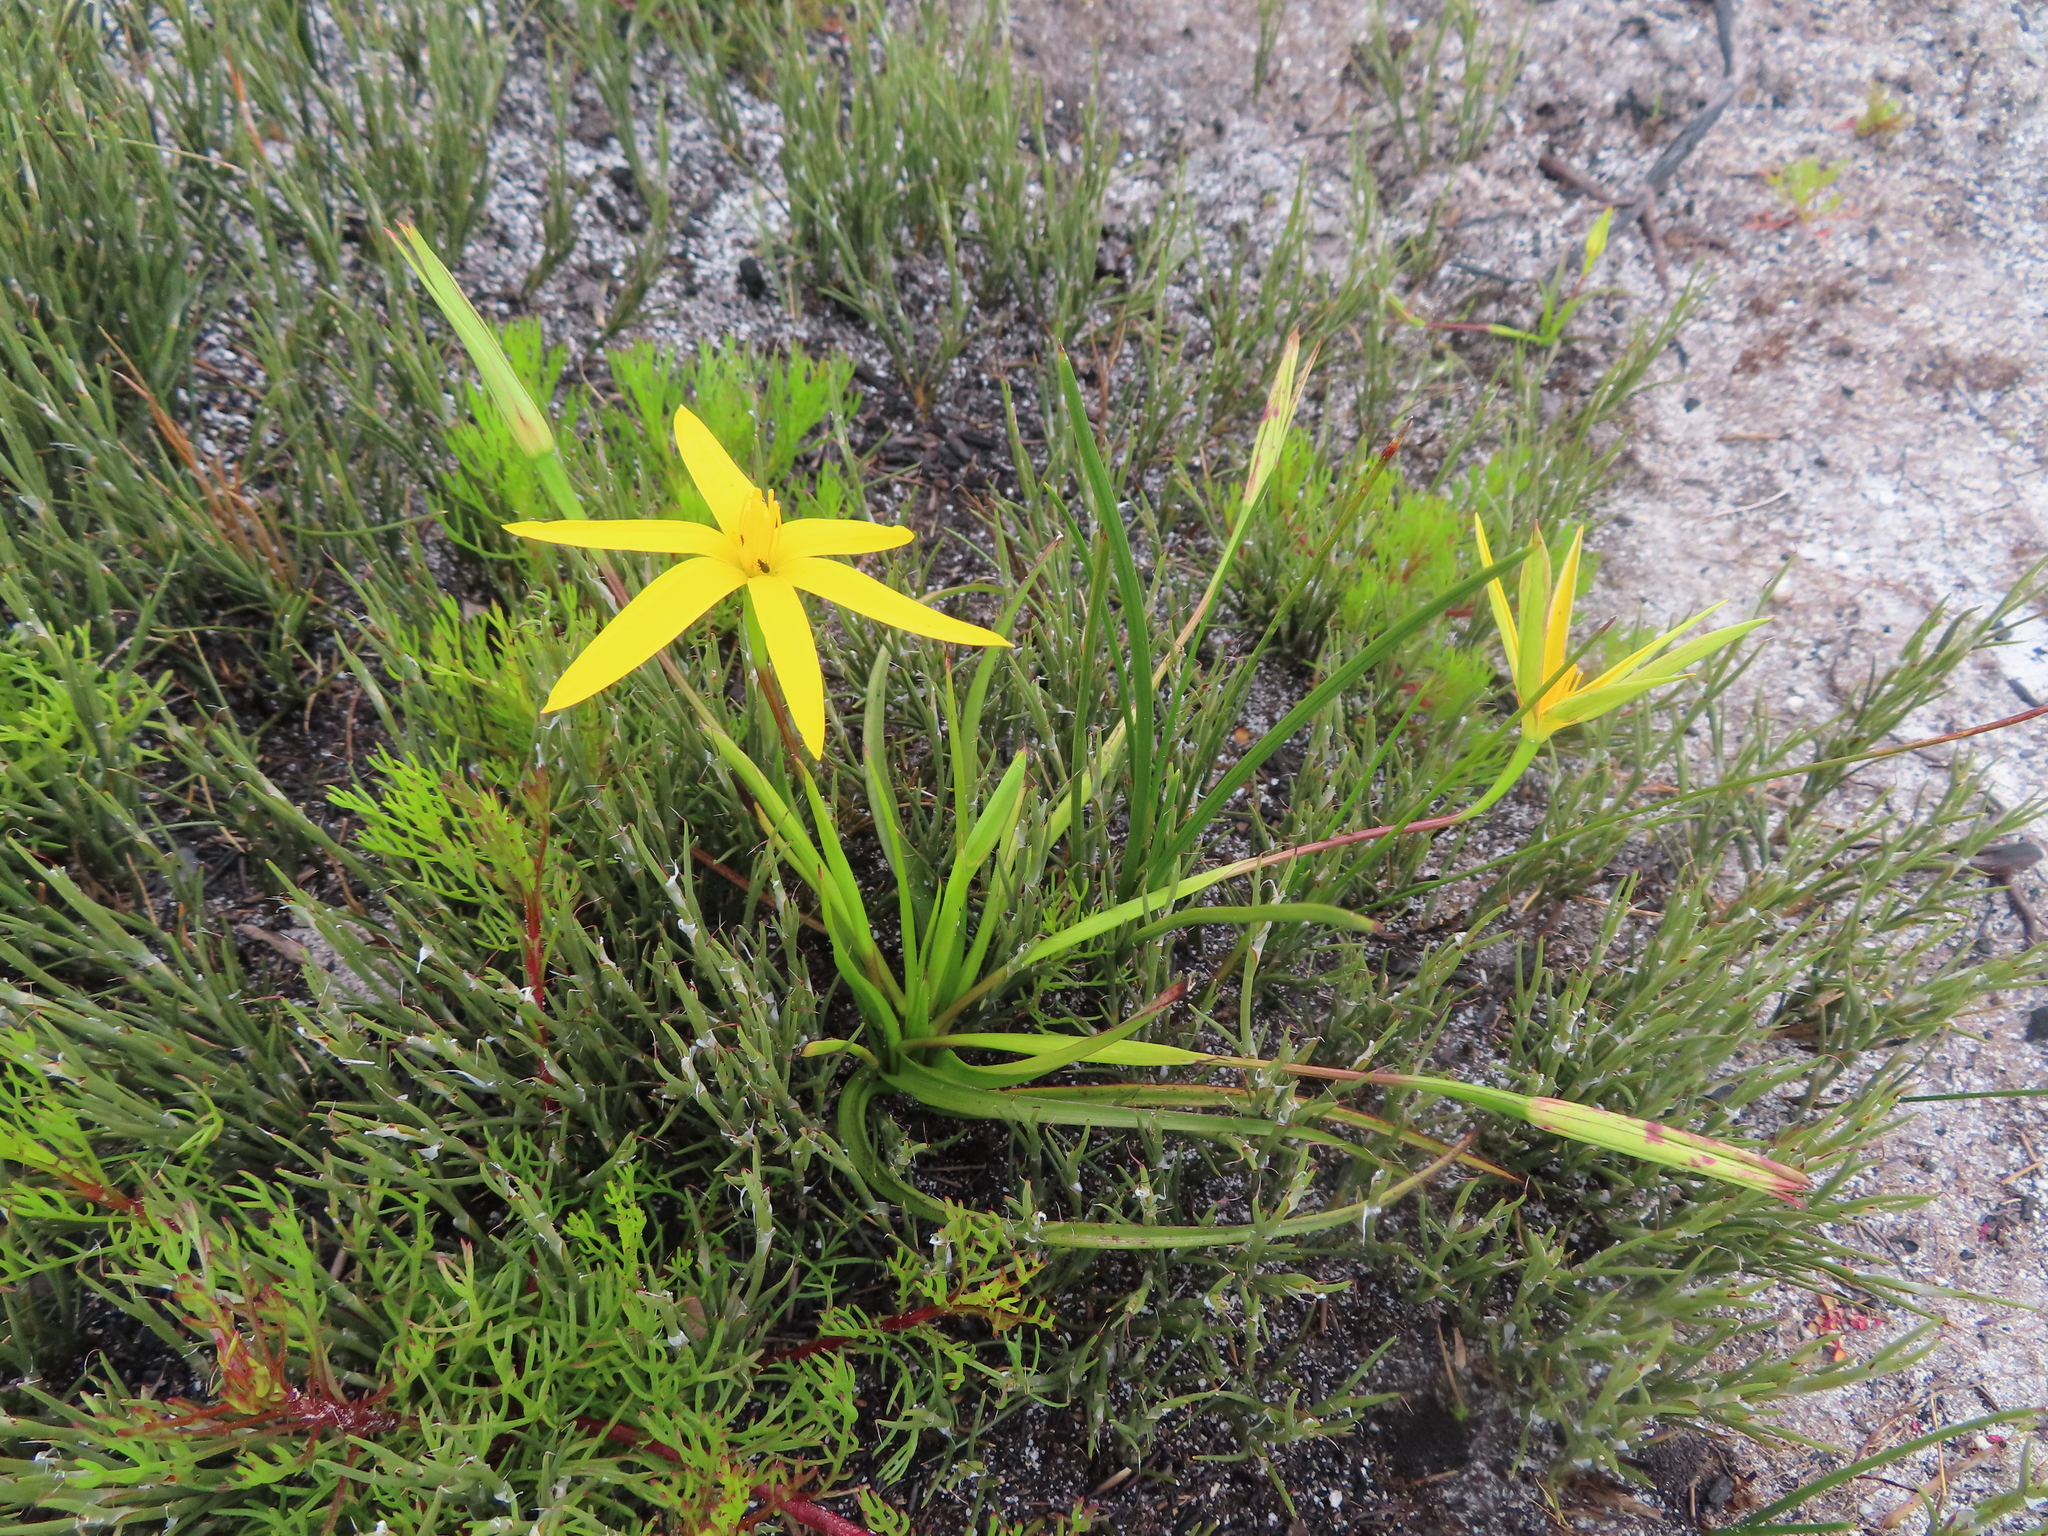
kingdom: Plantae
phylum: Tracheophyta
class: Liliopsida
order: Asparagales
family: Hypoxidaceae
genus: Pauridia
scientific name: Pauridia capensis
